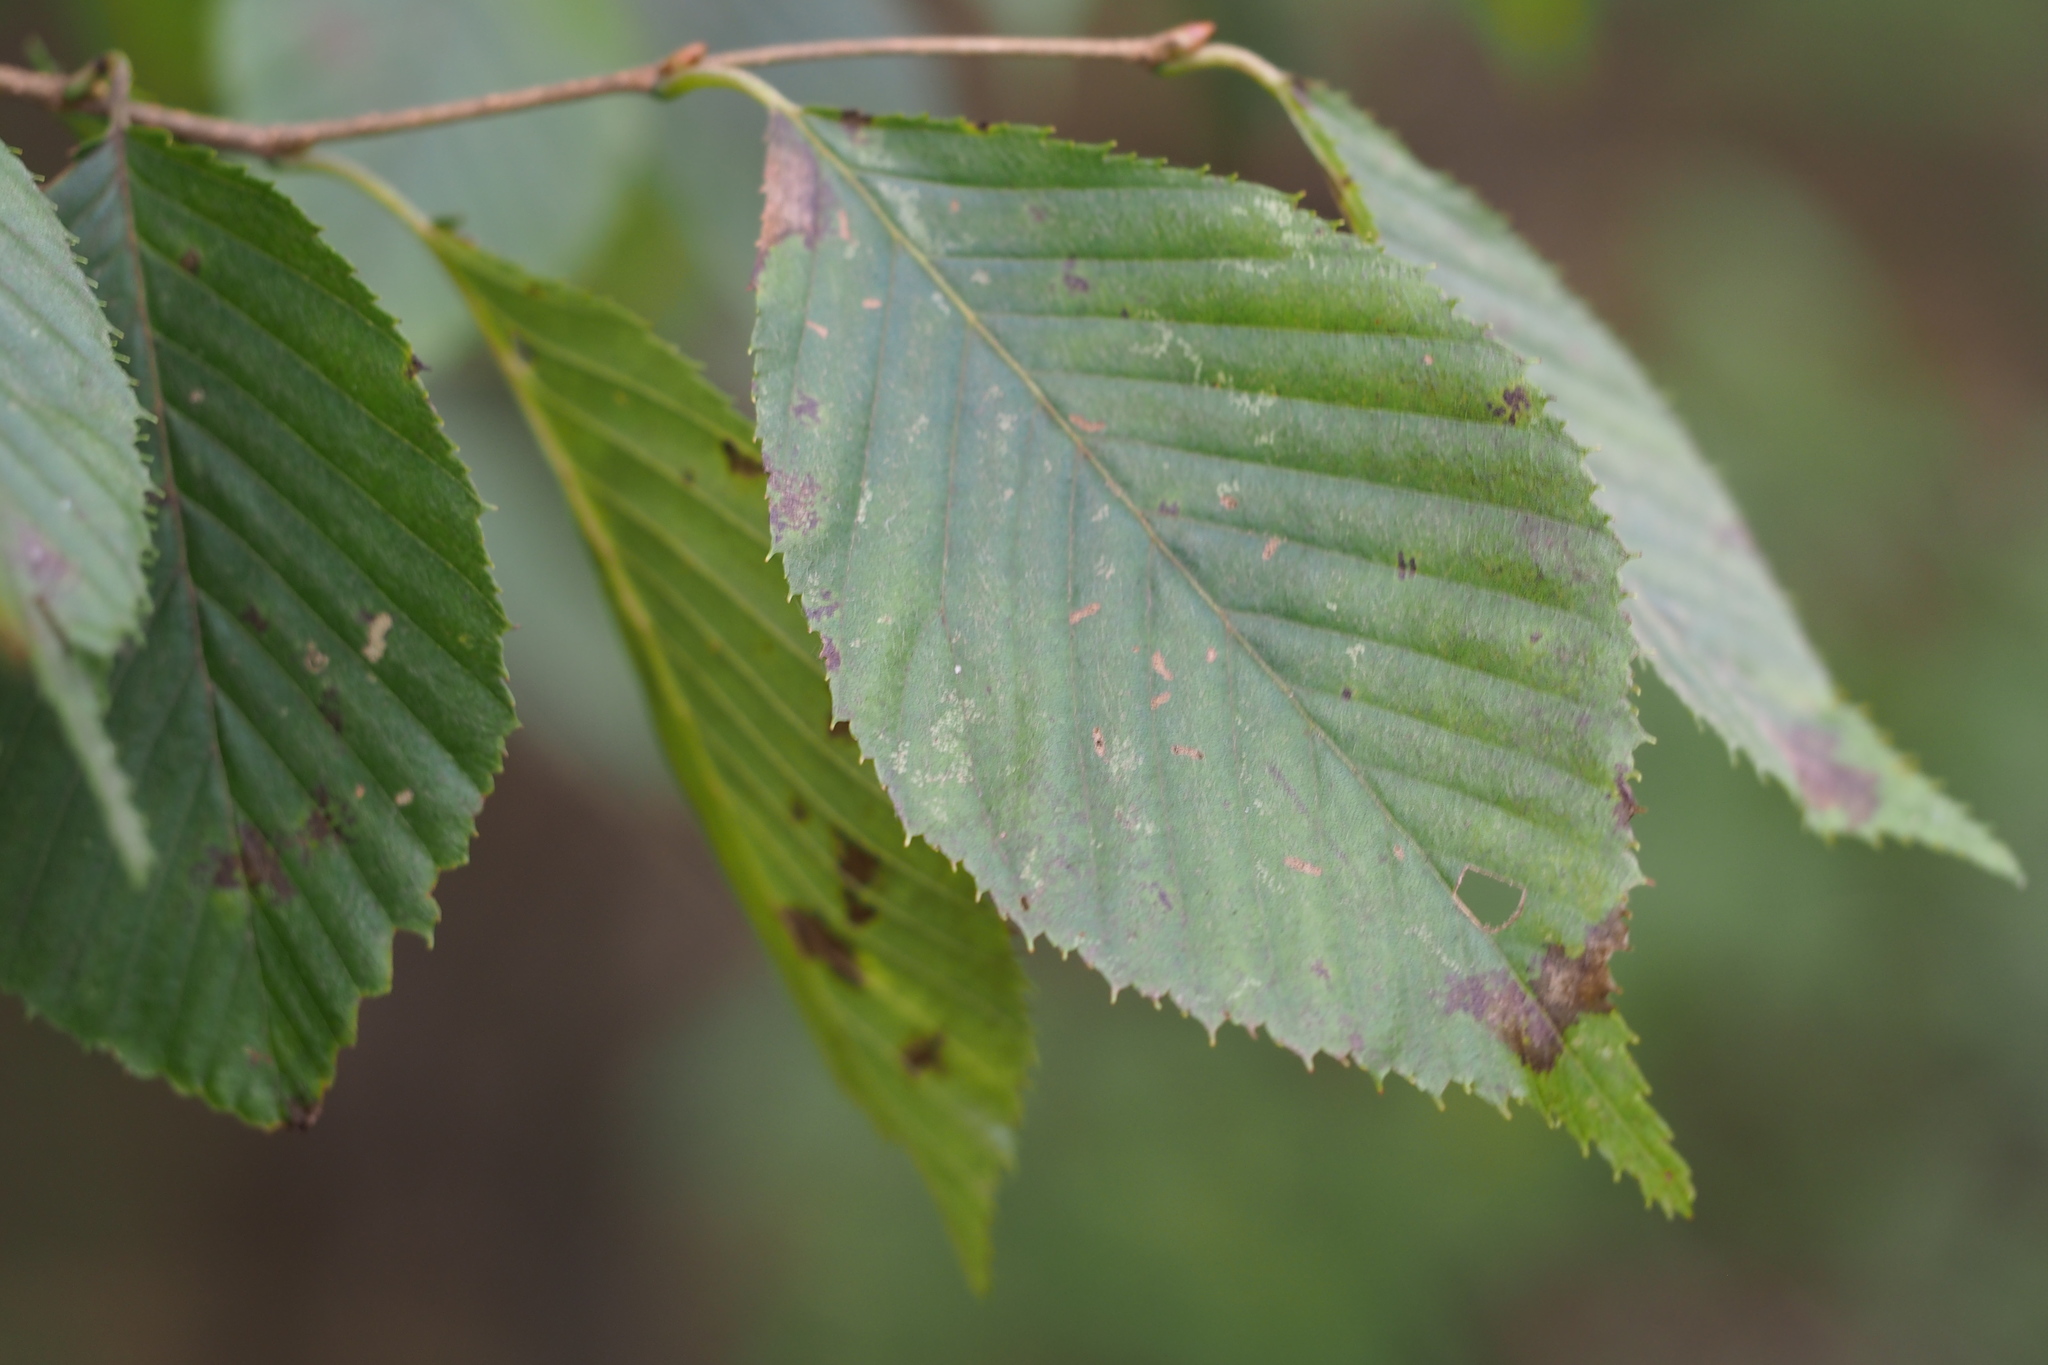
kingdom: Plantae
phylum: Tracheophyta
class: Magnoliopsida
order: Fagales
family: Betulaceae
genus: Carpinus
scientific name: Carpinus tschonoskii
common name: Asian hornbeam
